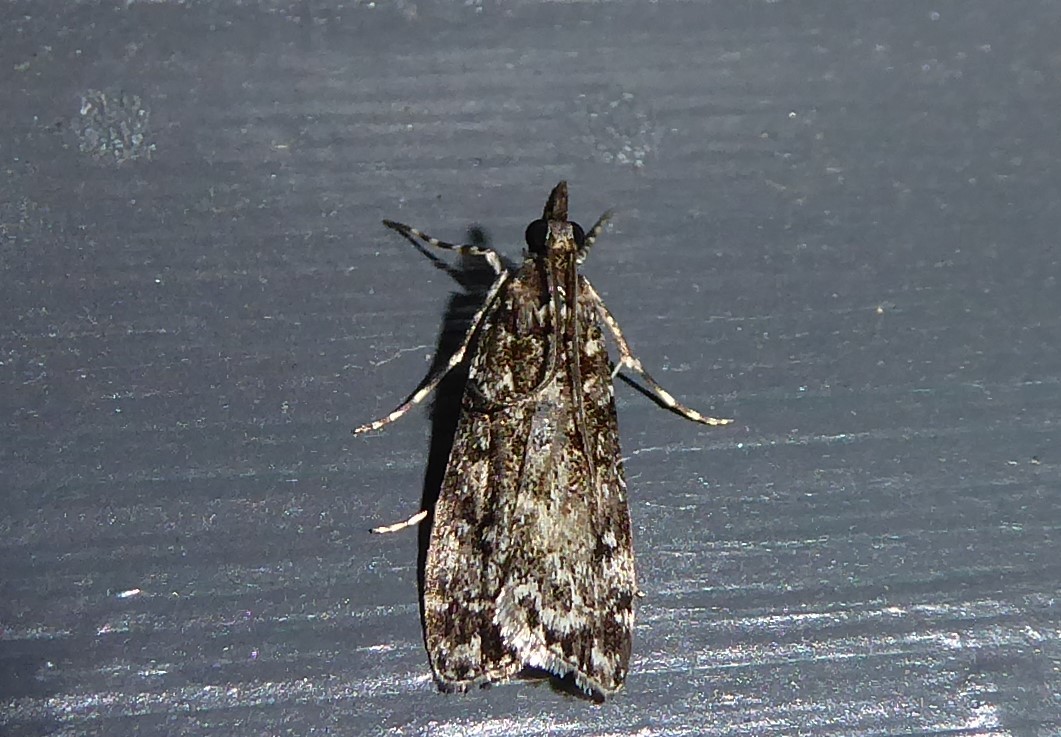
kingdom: Animalia
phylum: Arthropoda
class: Insecta
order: Lepidoptera
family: Crambidae
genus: Eudonia
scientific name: Eudonia philerga
